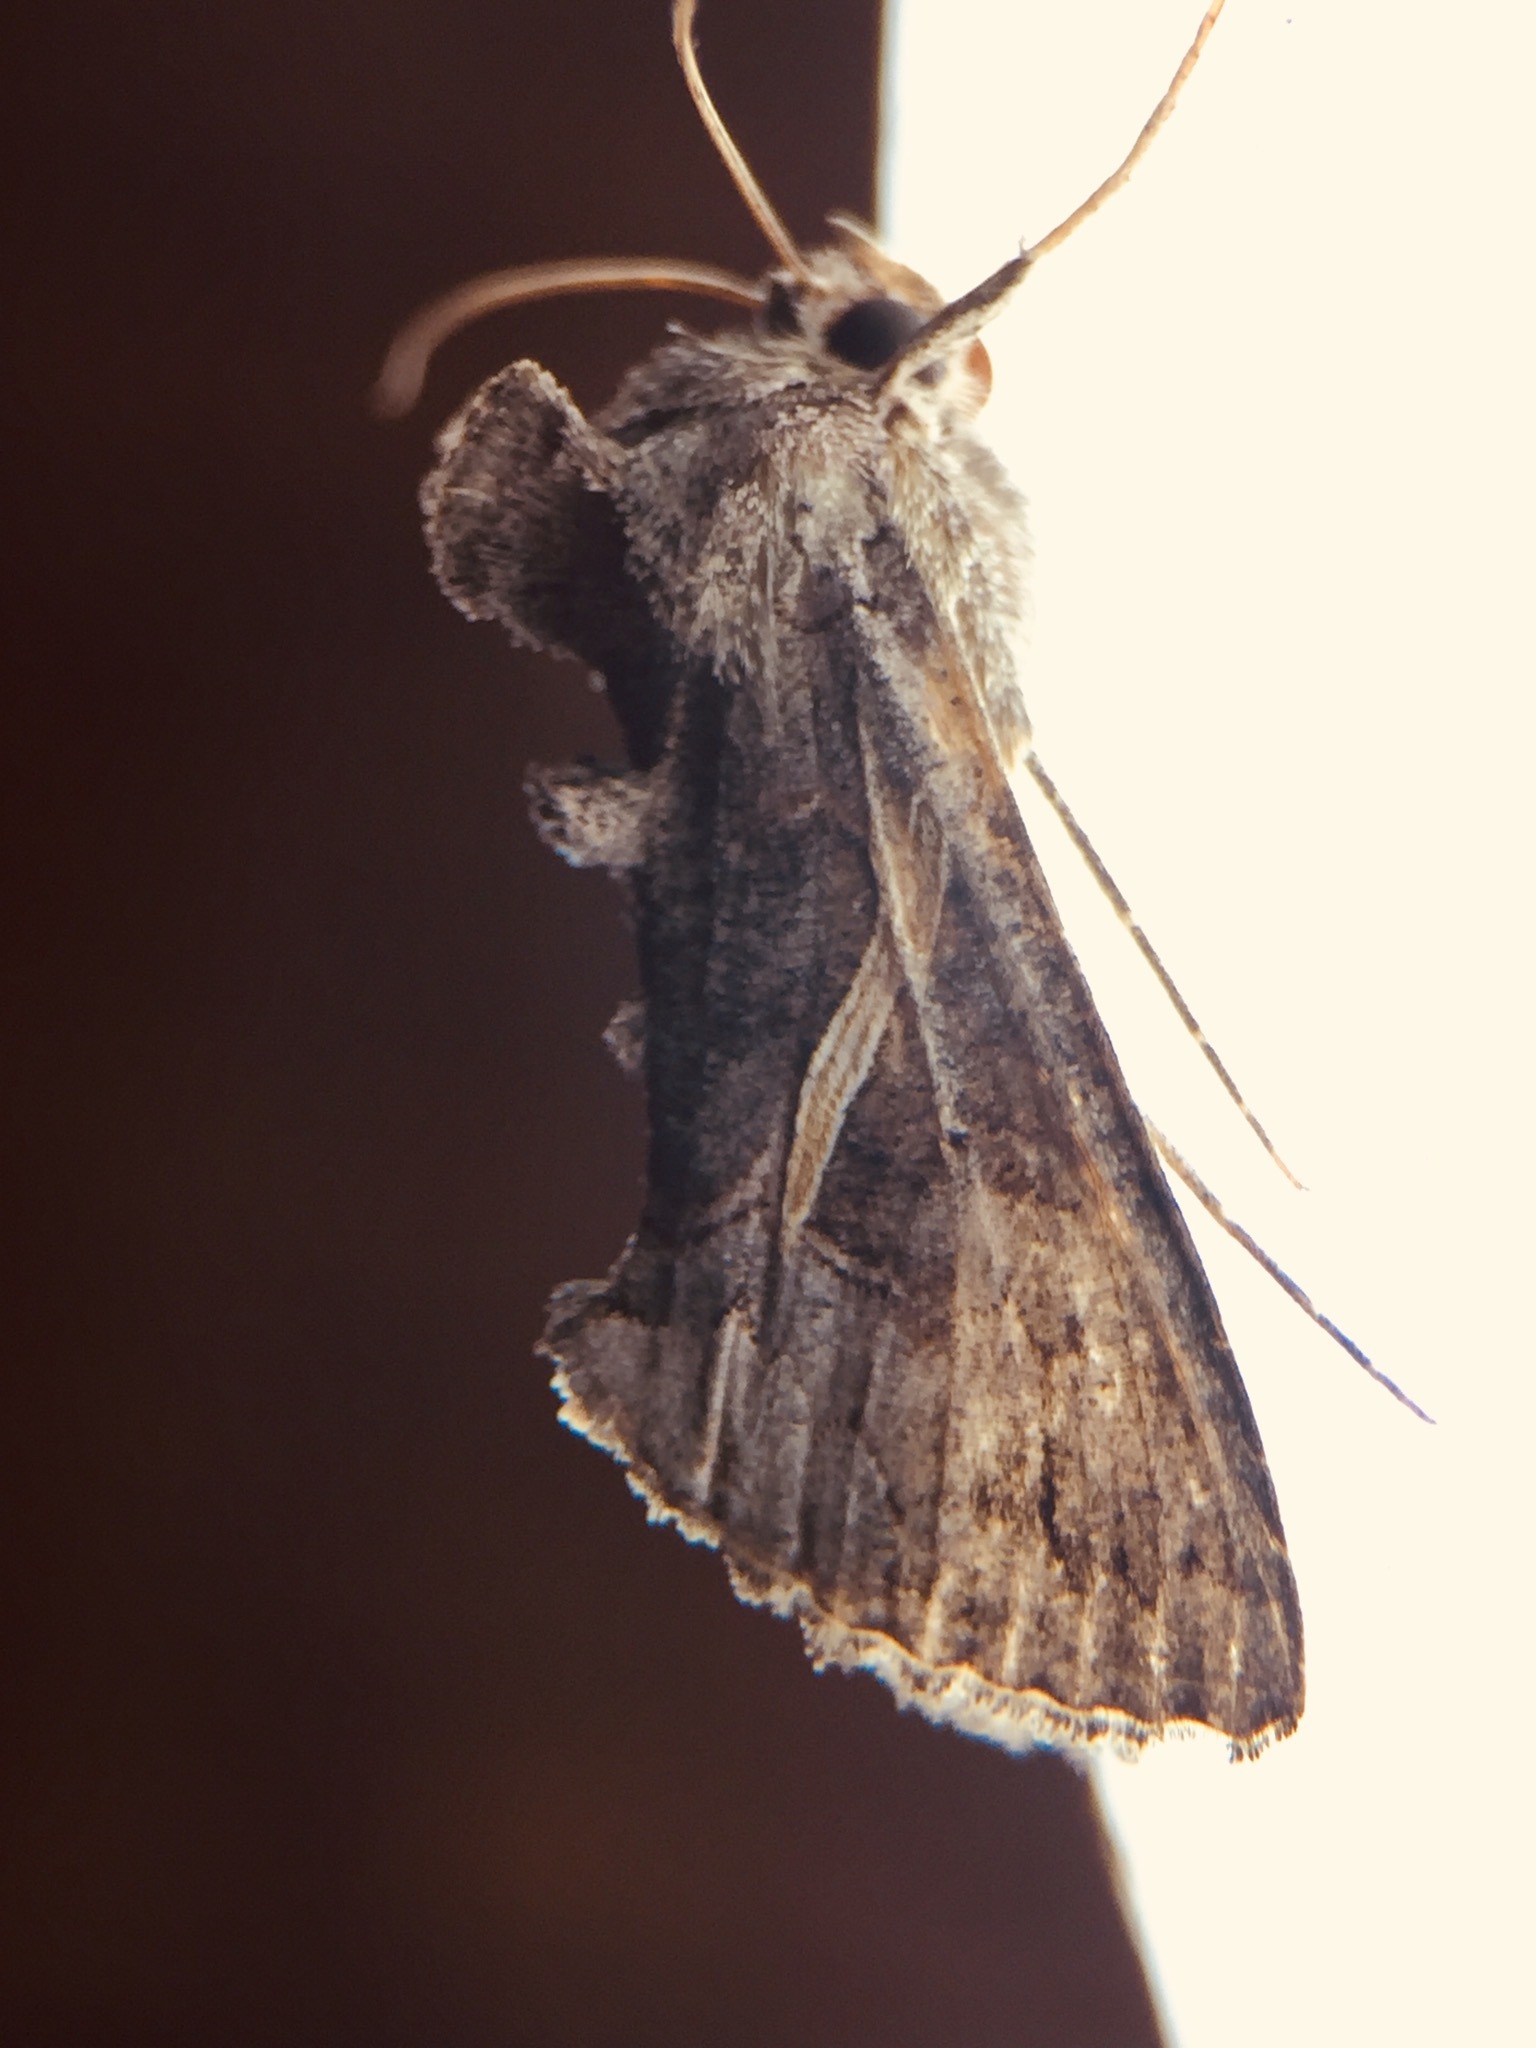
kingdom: Animalia
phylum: Arthropoda
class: Insecta
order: Lepidoptera
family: Noctuidae
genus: Ctenoplusia
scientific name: Ctenoplusia albostriata
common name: Moth
